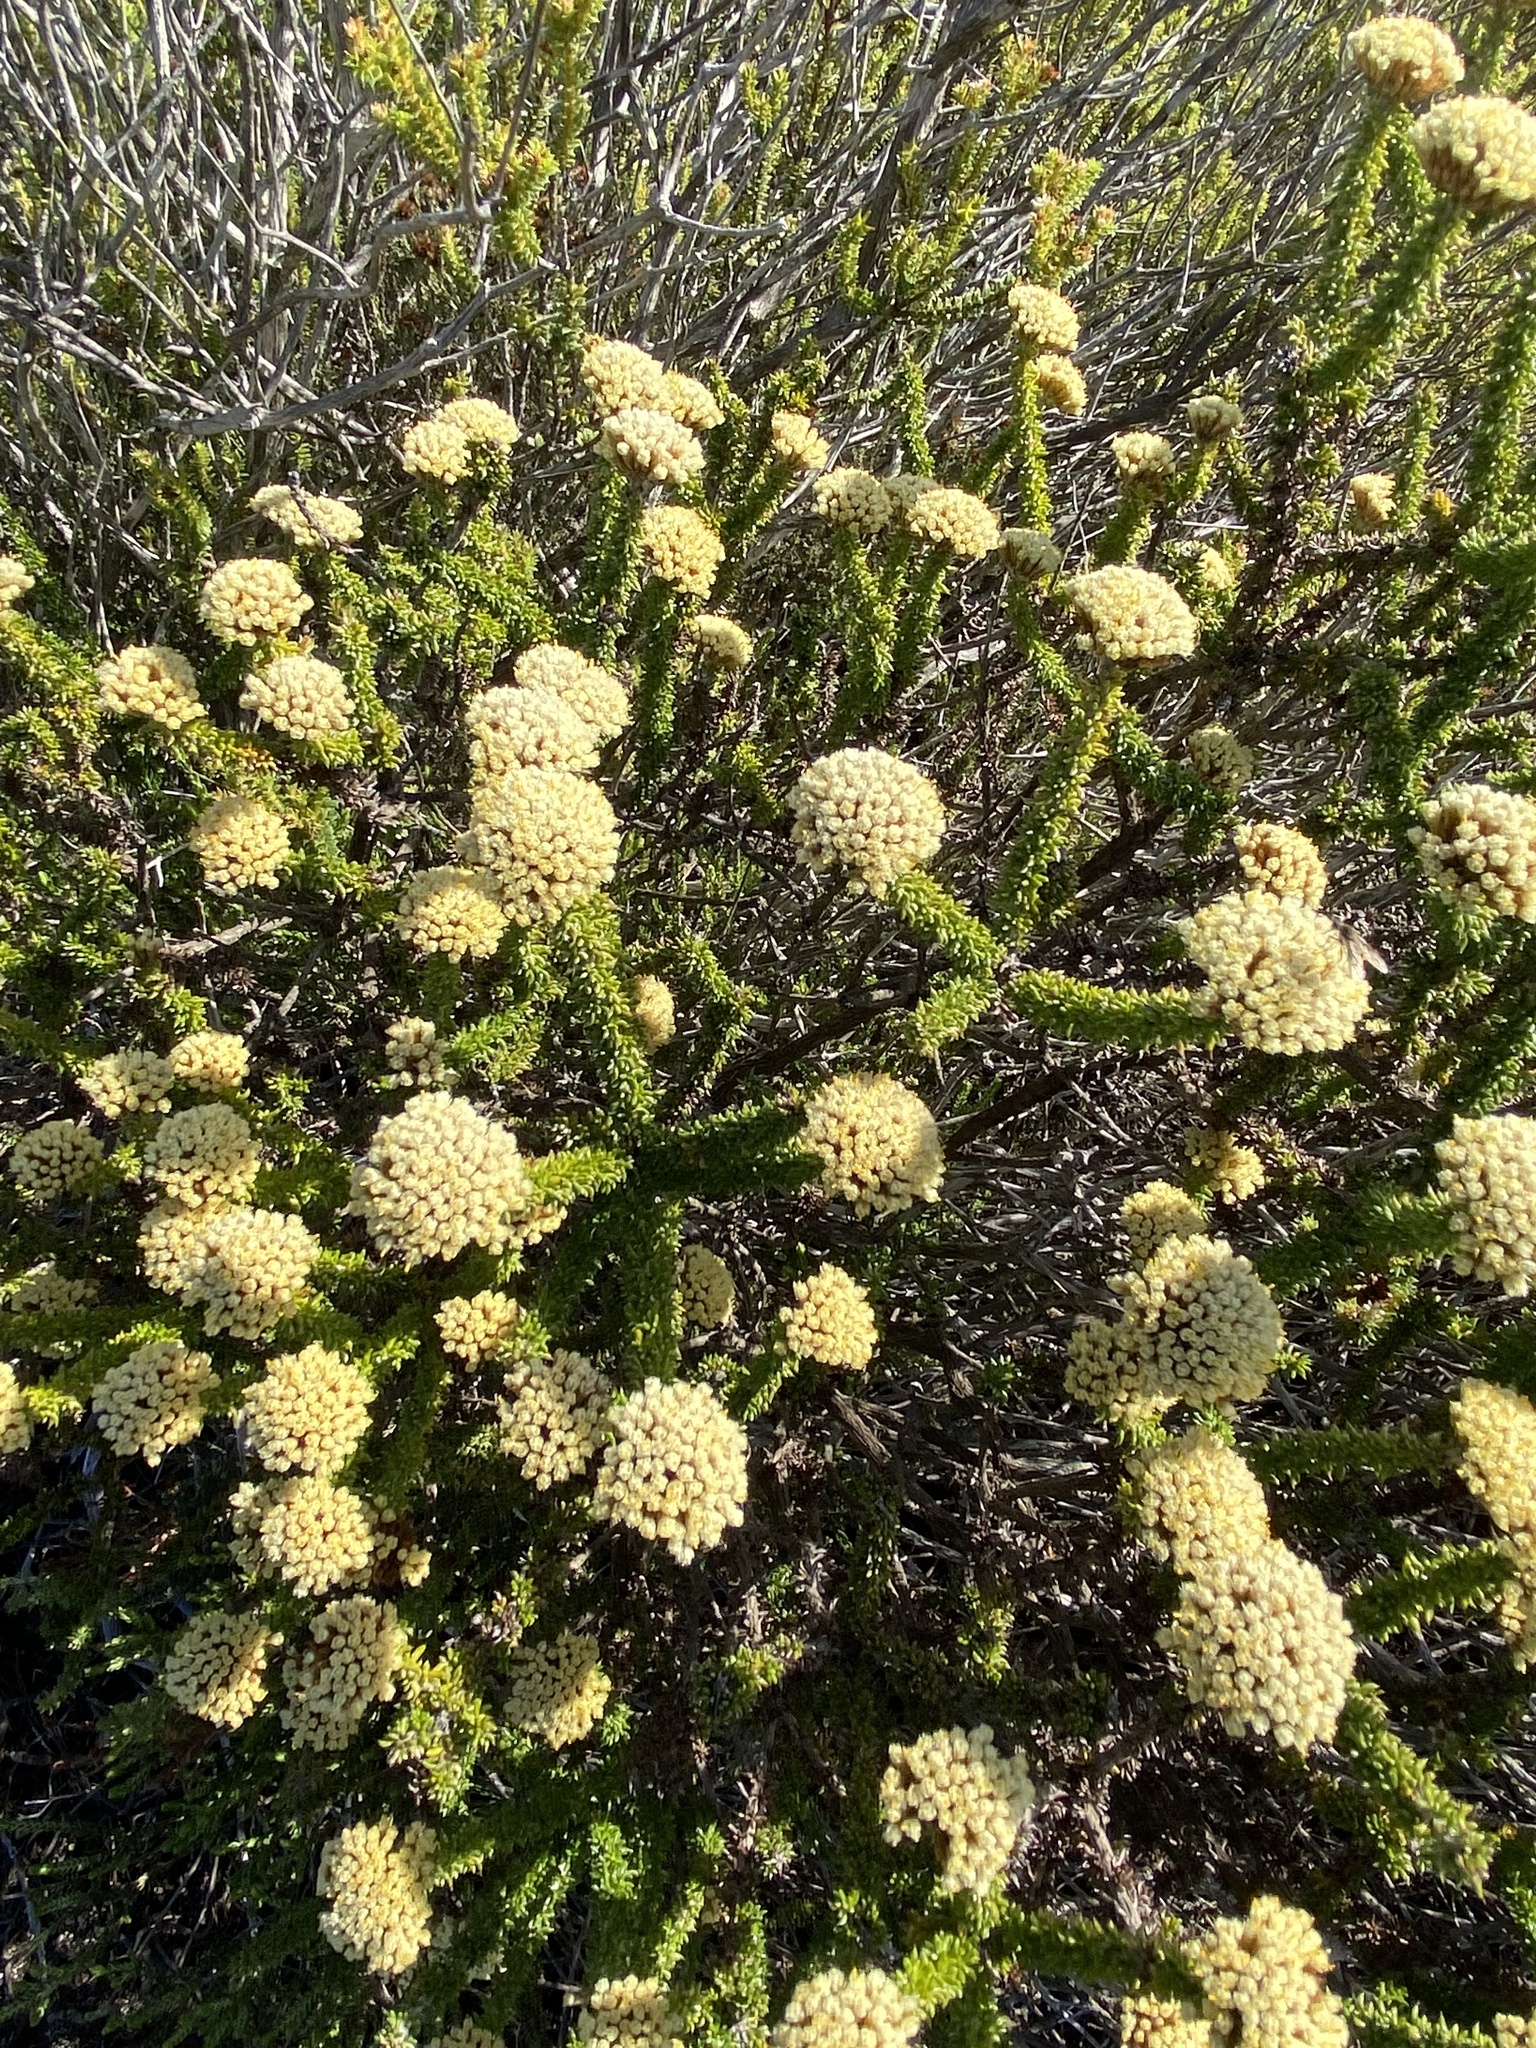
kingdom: Plantae
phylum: Tracheophyta
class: Magnoliopsida
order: Asterales
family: Asteraceae
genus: Metalasia
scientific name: Metalasia luteola
